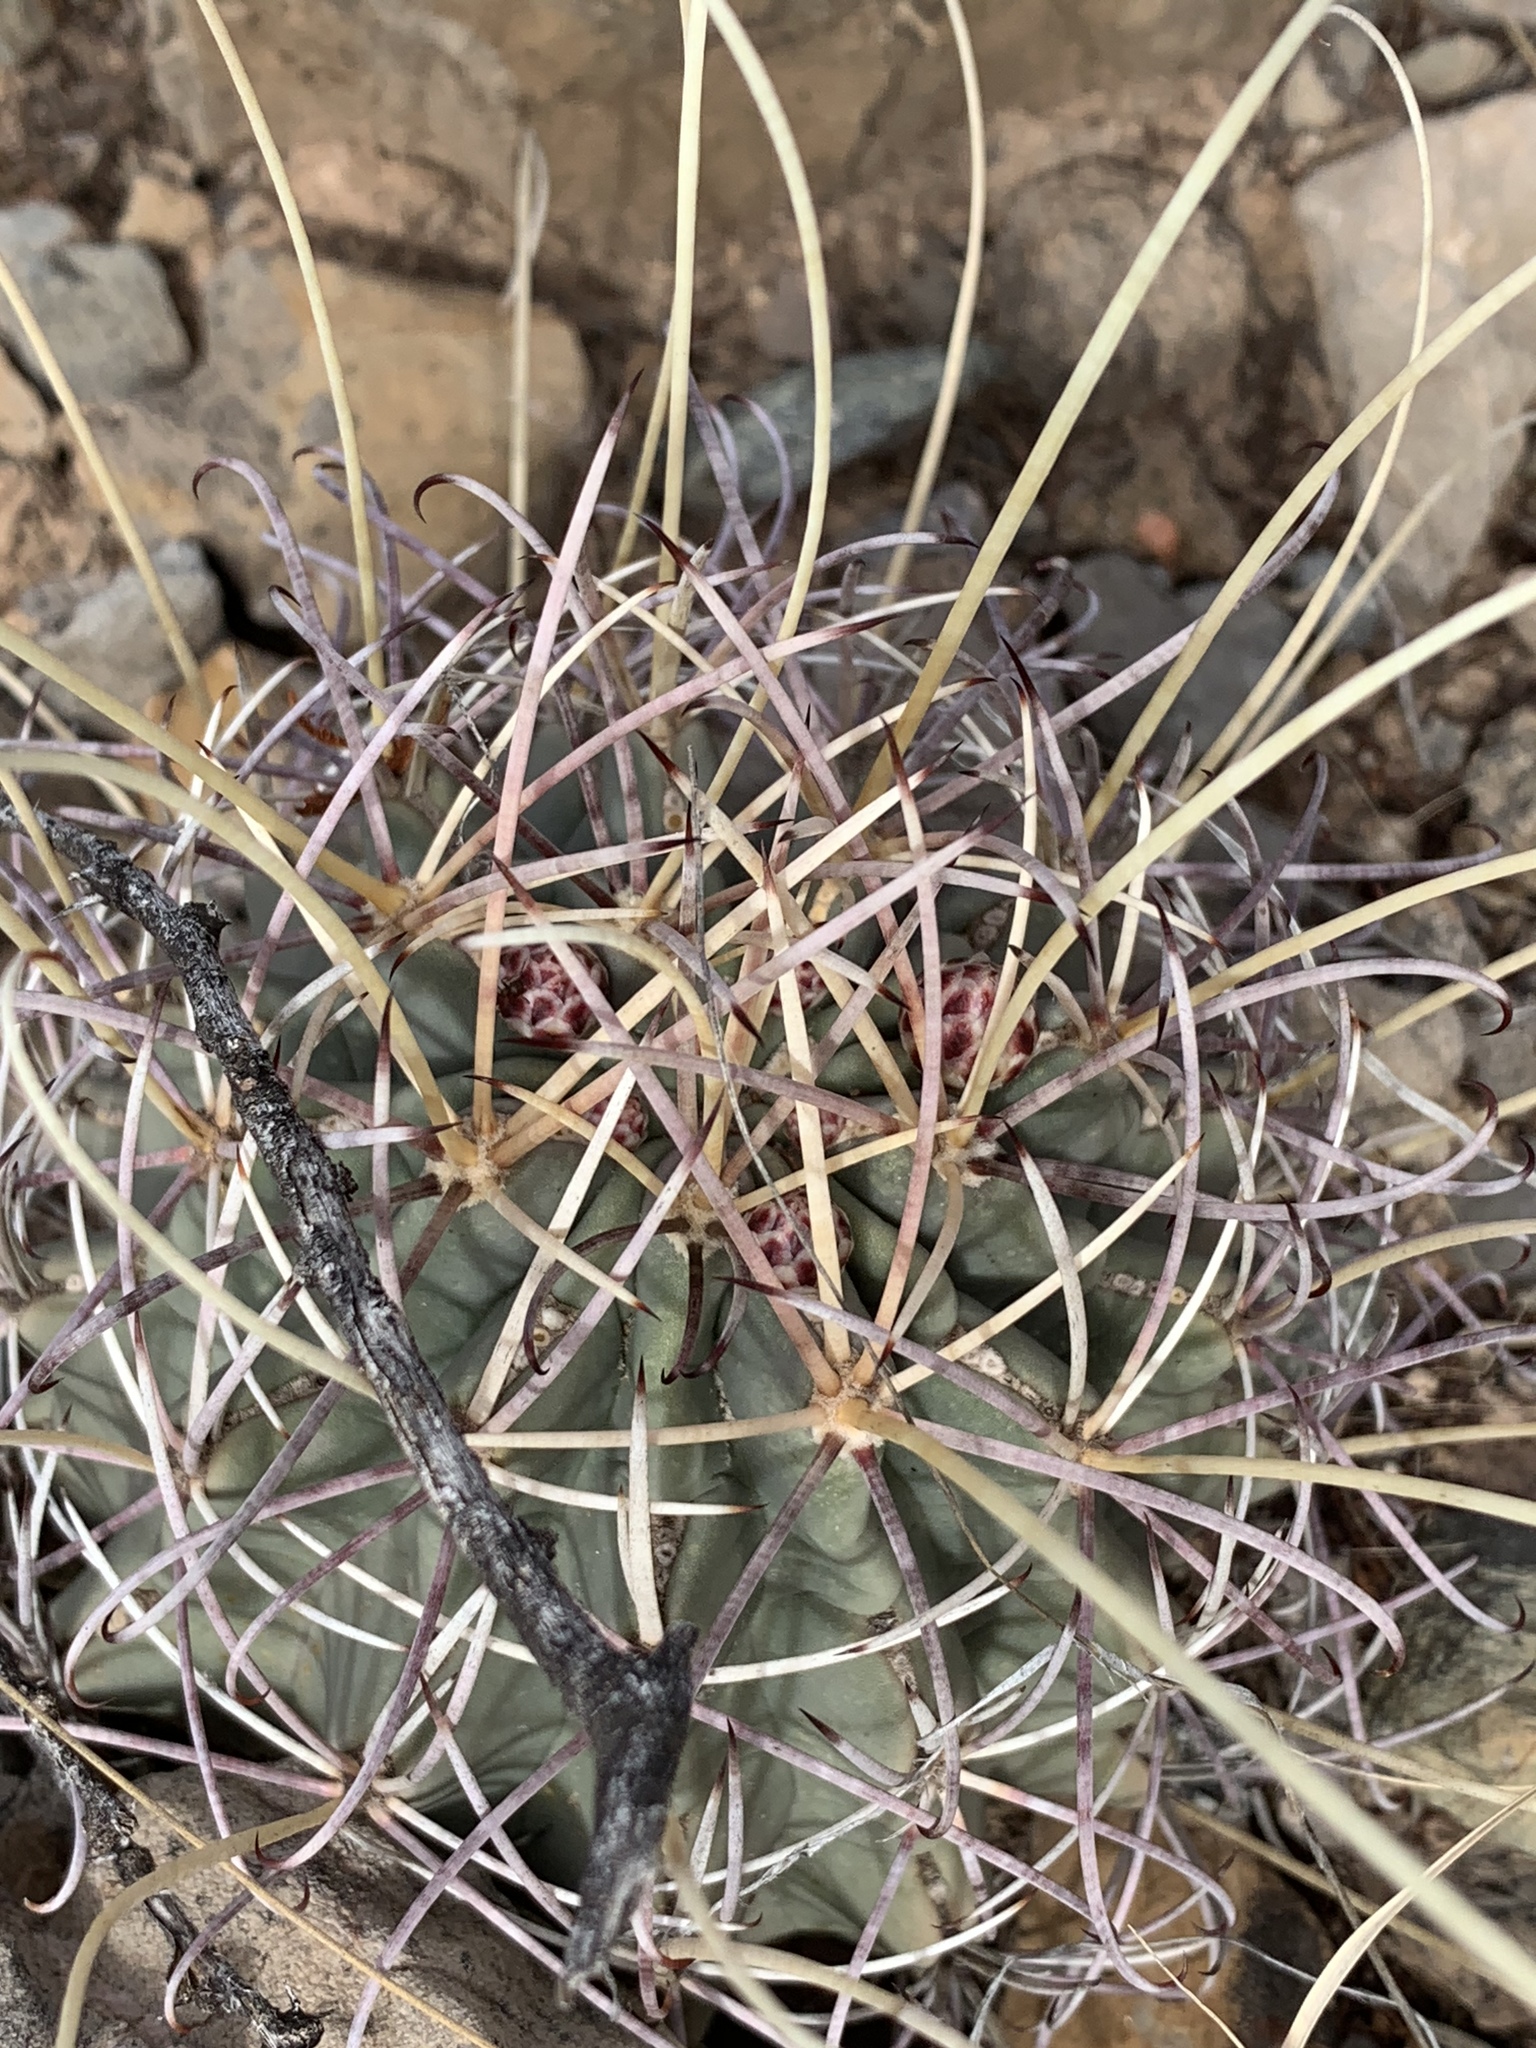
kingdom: Plantae
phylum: Tracheophyta
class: Magnoliopsida
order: Caryophyllales
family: Cactaceae
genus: Ferocactus
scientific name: Ferocactus uncinatus
